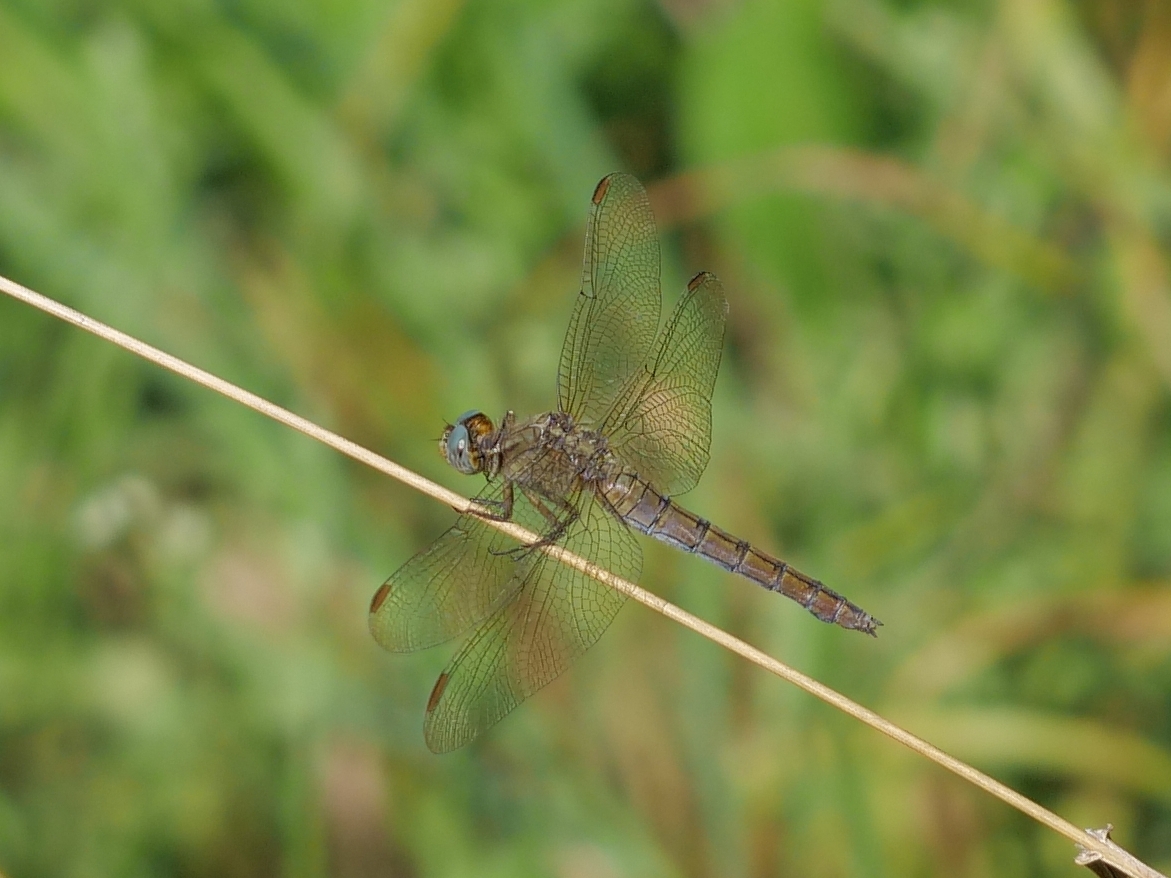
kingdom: Animalia
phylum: Arthropoda
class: Insecta
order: Odonata
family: Libellulidae
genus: Orthetrum
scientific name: Orthetrum coerulescens
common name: Keeled skimmer
